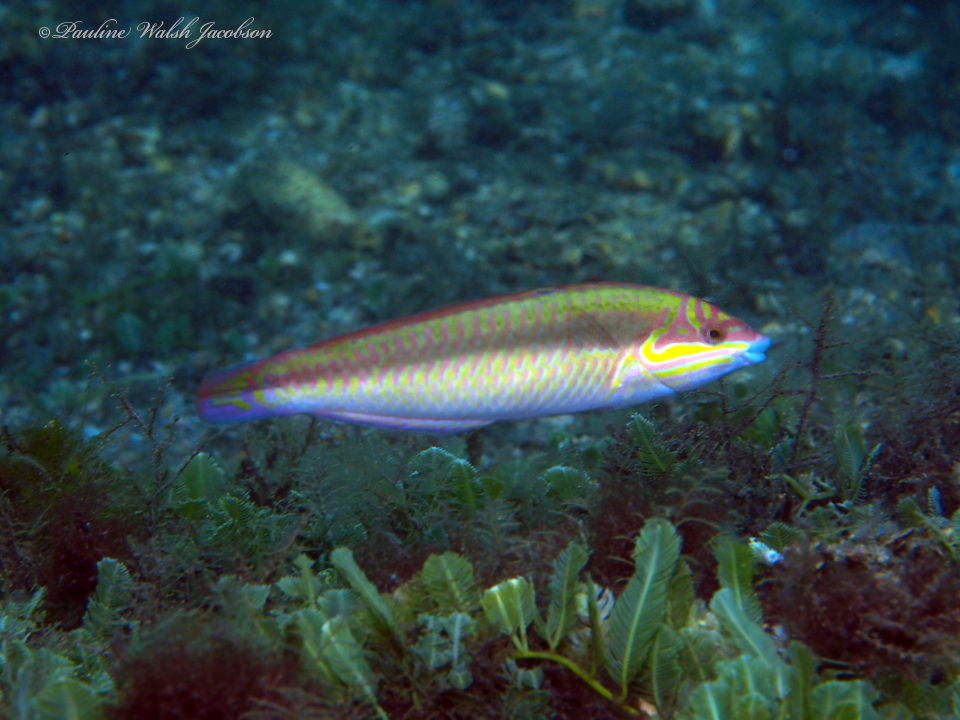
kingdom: Animalia
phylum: Chordata
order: Perciformes
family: Labridae
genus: Halichoeres
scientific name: Halichoeres maculipinna
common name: Clown wrasse
